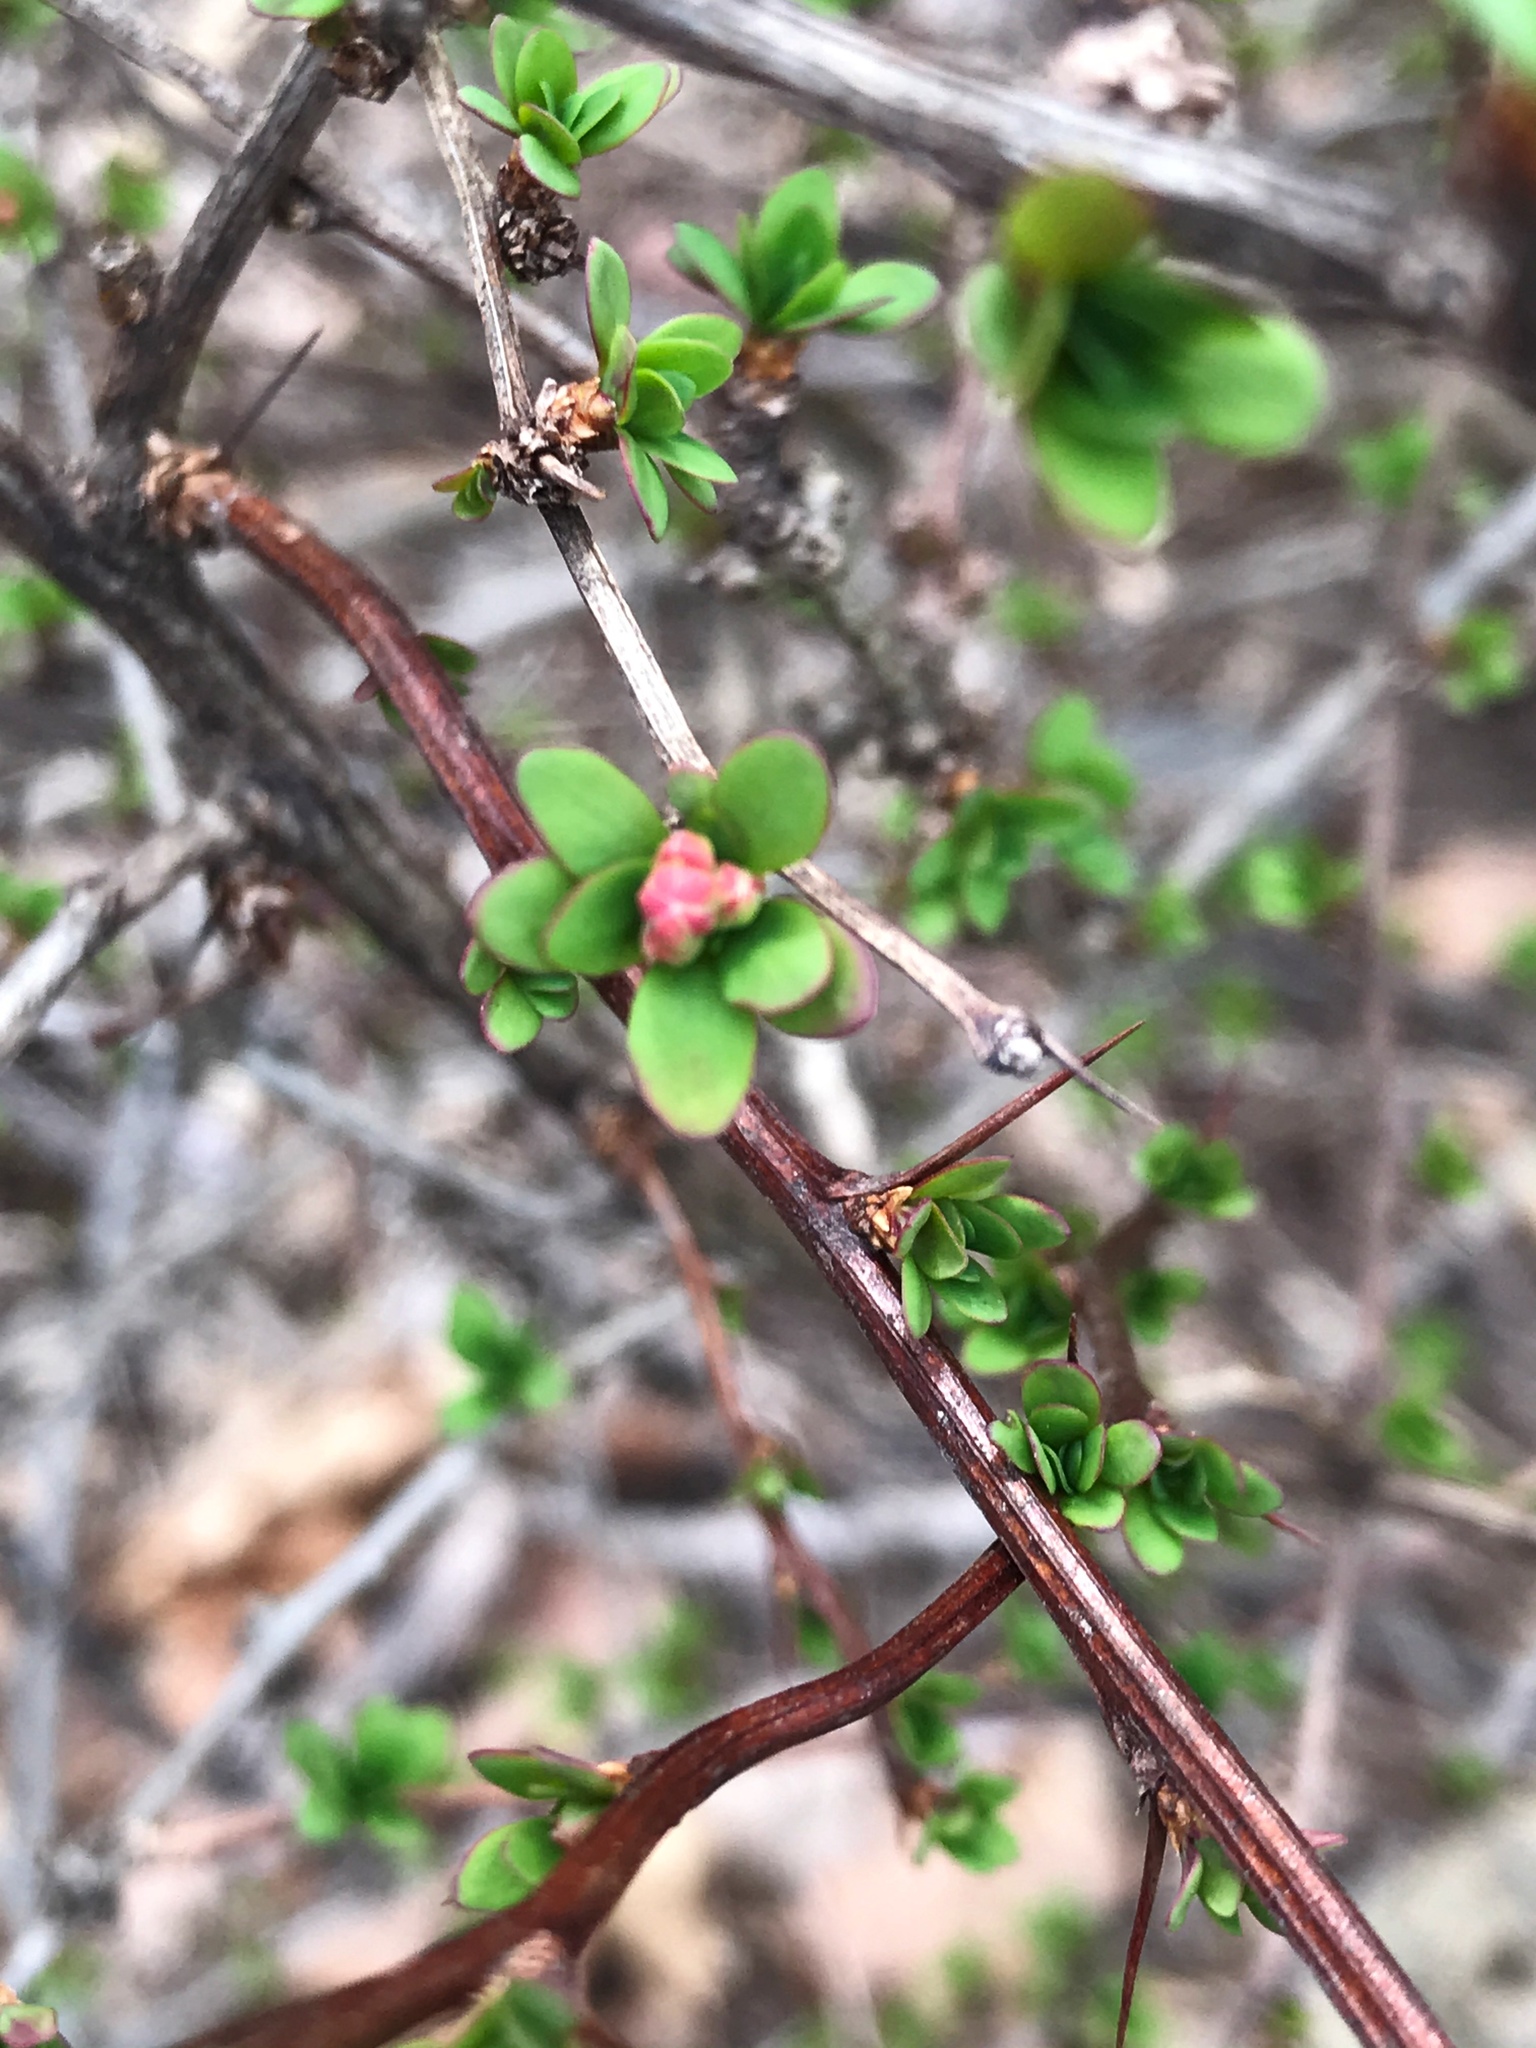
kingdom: Plantae
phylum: Tracheophyta
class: Magnoliopsida
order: Ranunculales
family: Berberidaceae
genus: Berberis
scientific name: Berberis thunbergii
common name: Japanese barberry
